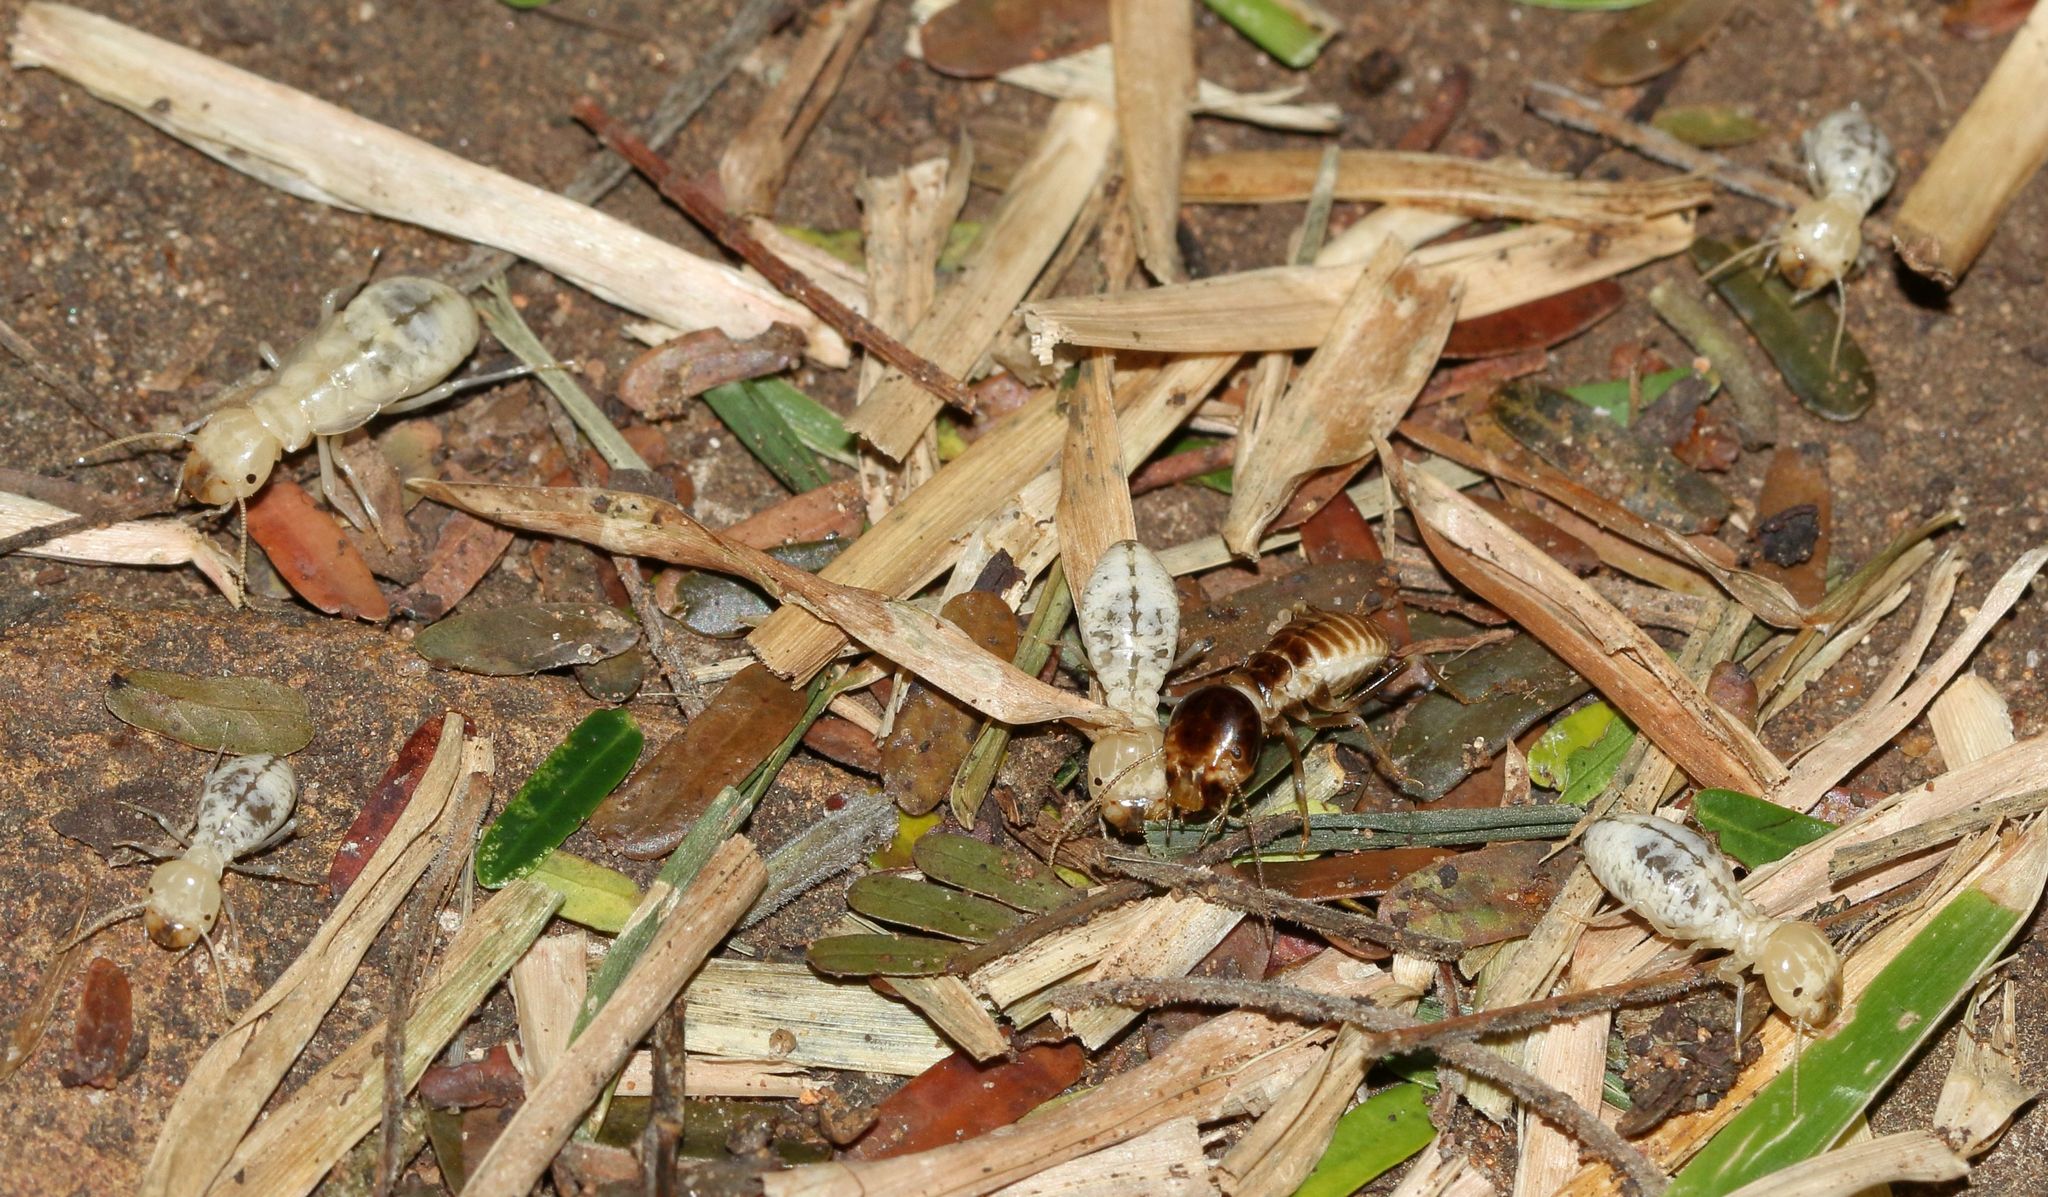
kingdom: Animalia
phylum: Arthropoda
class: Insecta
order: Blattodea
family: Hodotermitidae
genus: Hodotermes
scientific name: Hodotermes mossambicus
